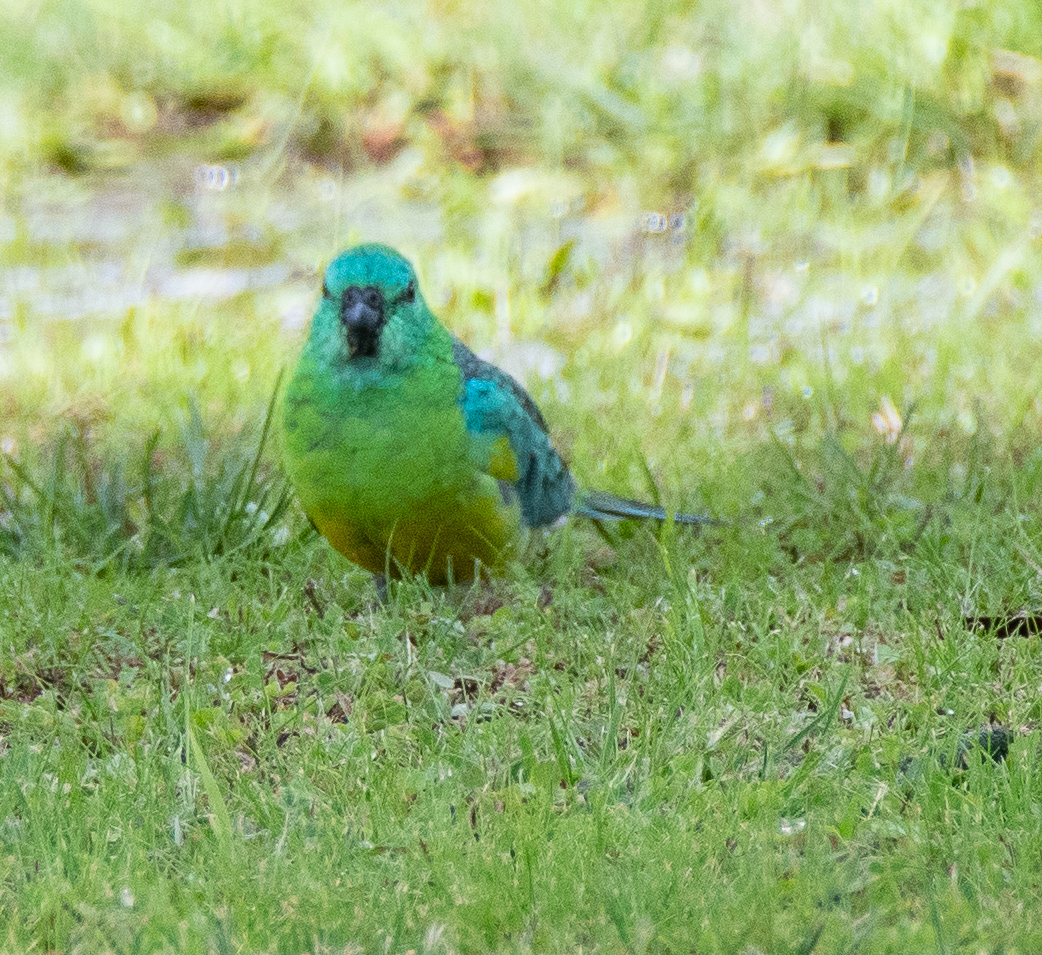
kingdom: Animalia
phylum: Chordata
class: Aves
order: Psittaciformes
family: Psittacidae
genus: Psephotus
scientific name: Psephotus haematonotus
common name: Red-rumped parrot
